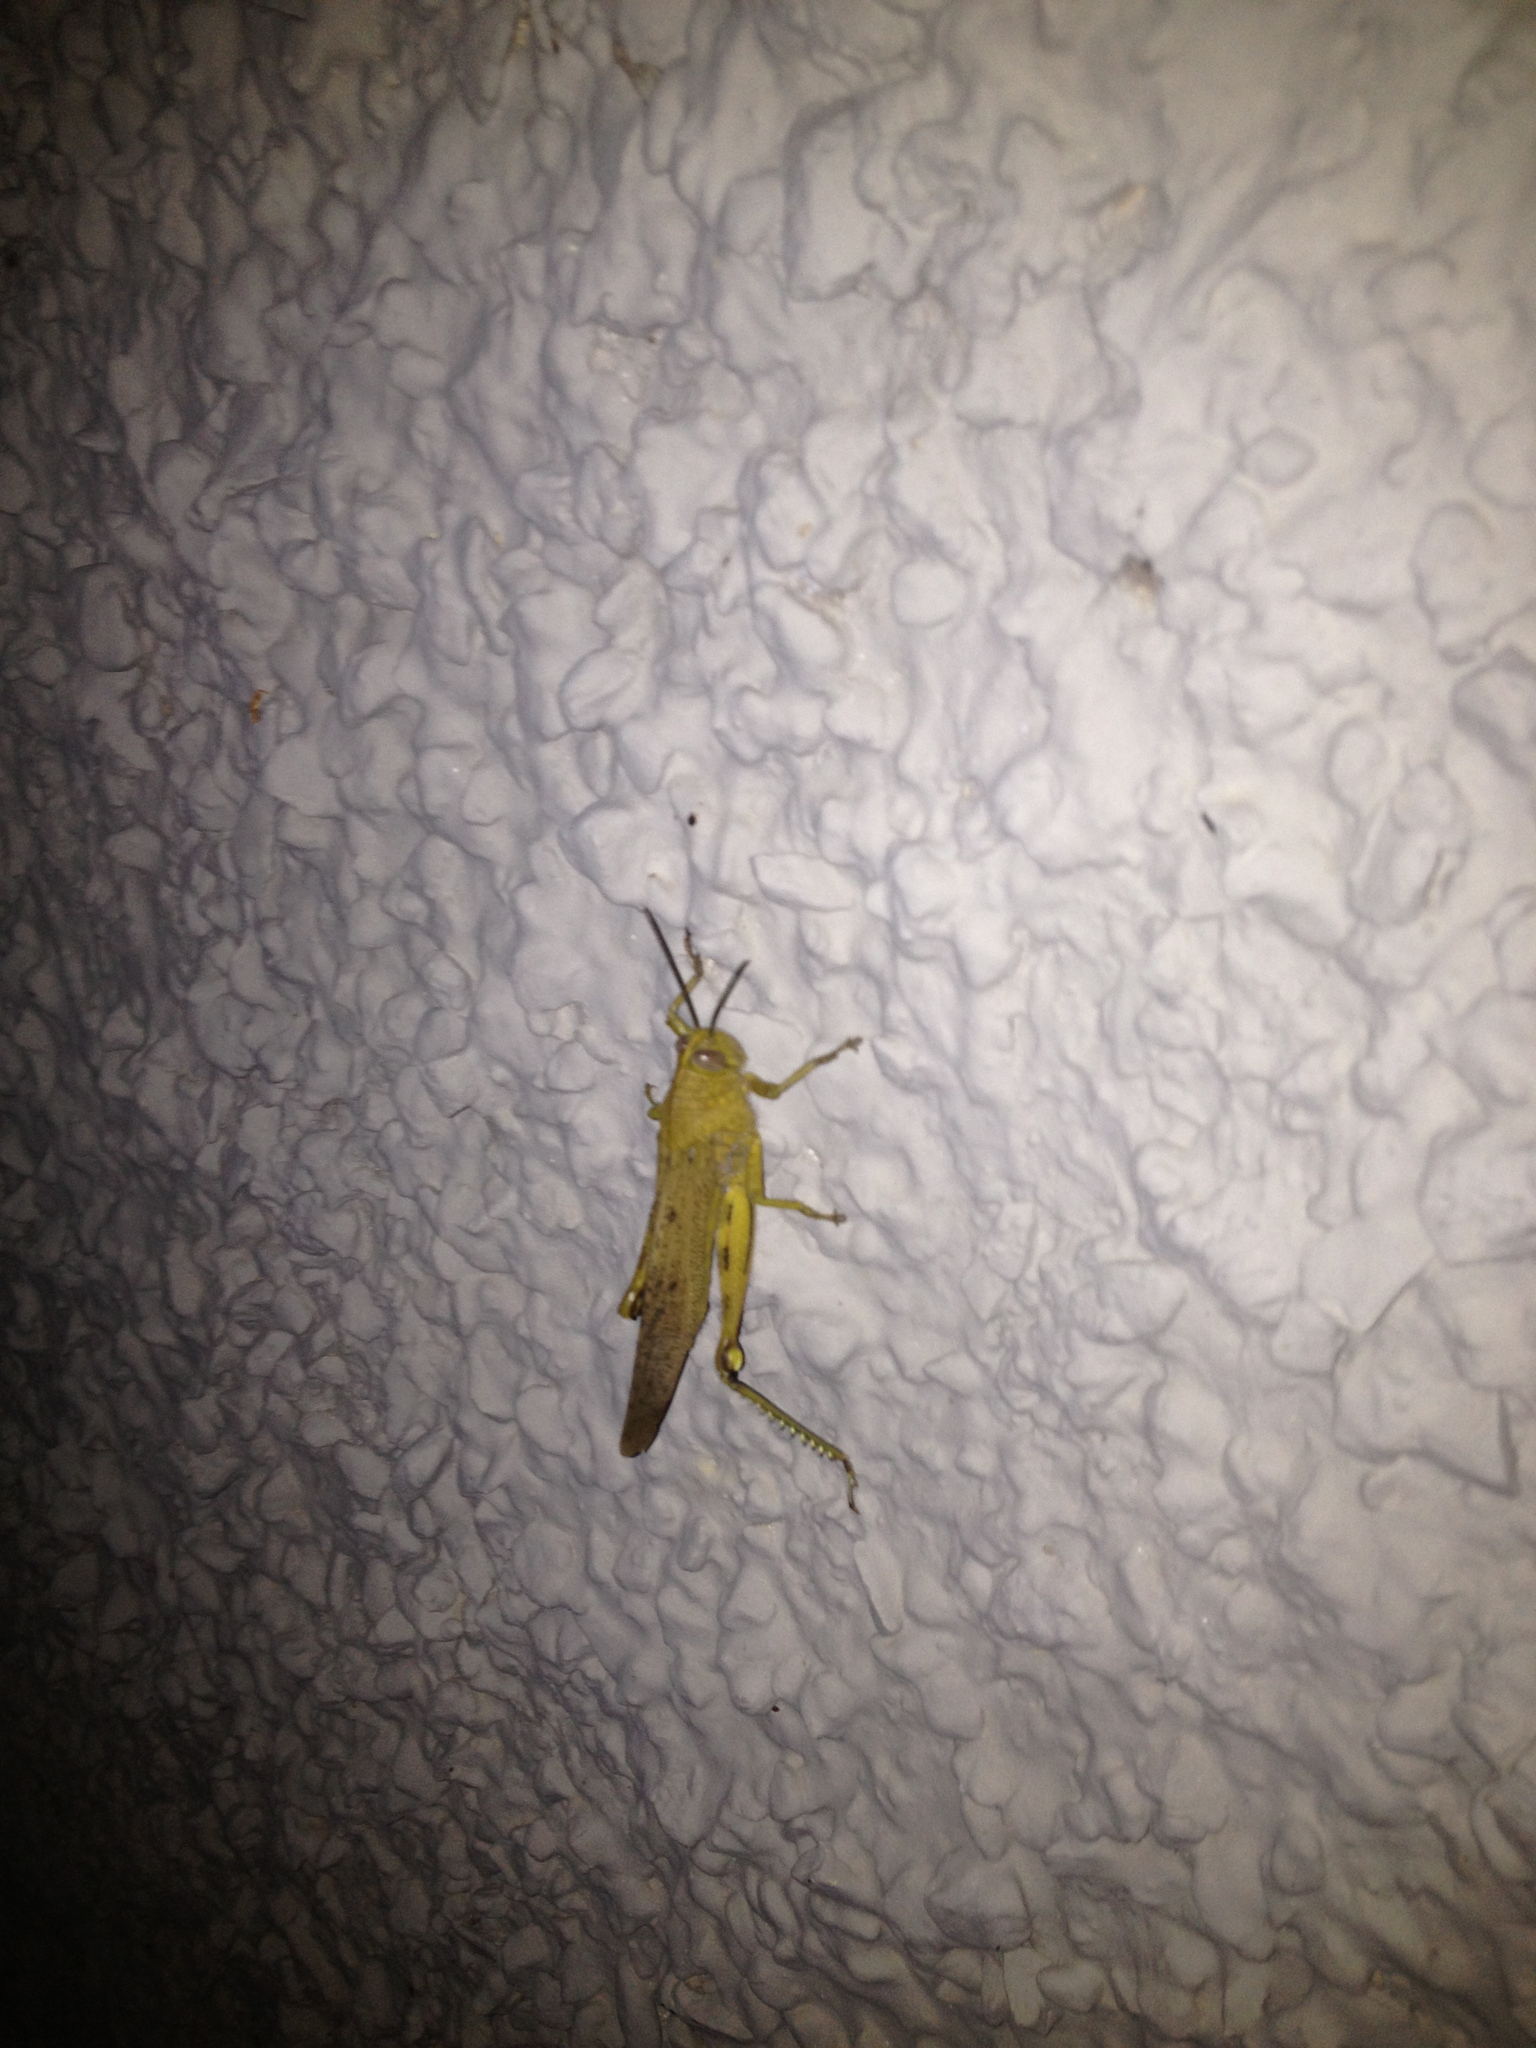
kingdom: Animalia
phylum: Arthropoda
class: Insecta
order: Orthoptera
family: Acrididae
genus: Anacridium
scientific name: Anacridium aegyptium
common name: Egyptian grasshopper
